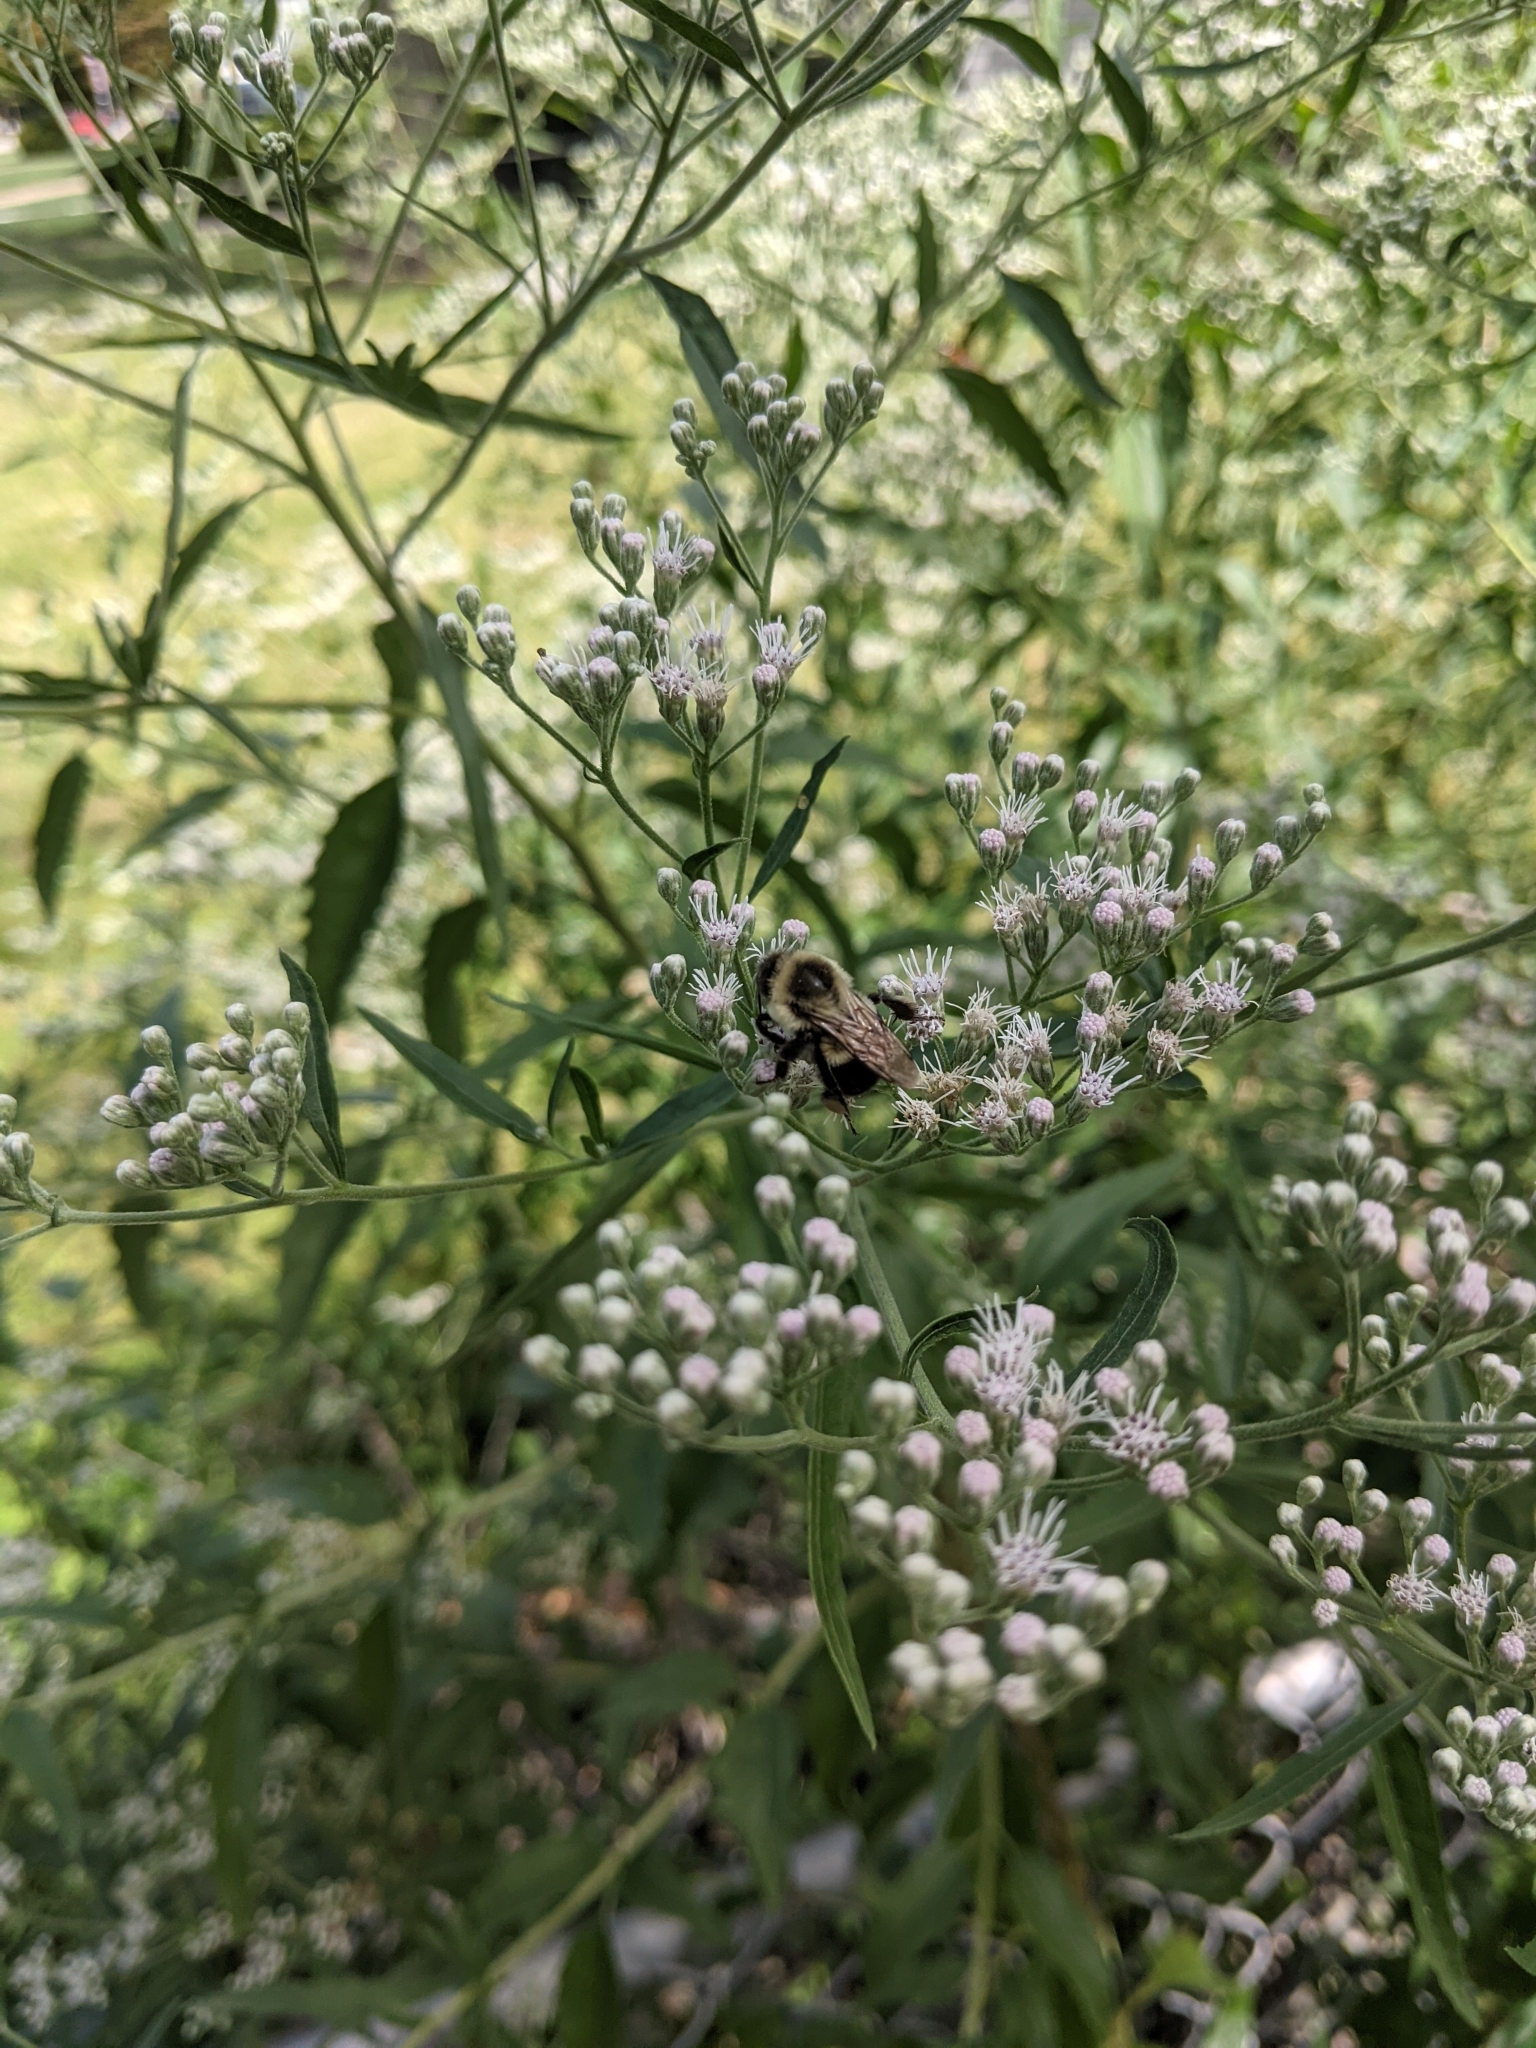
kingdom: Animalia
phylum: Arthropoda
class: Insecta
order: Hymenoptera
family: Apidae
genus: Bombus
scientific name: Bombus impatiens
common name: Common eastern bumble bee
